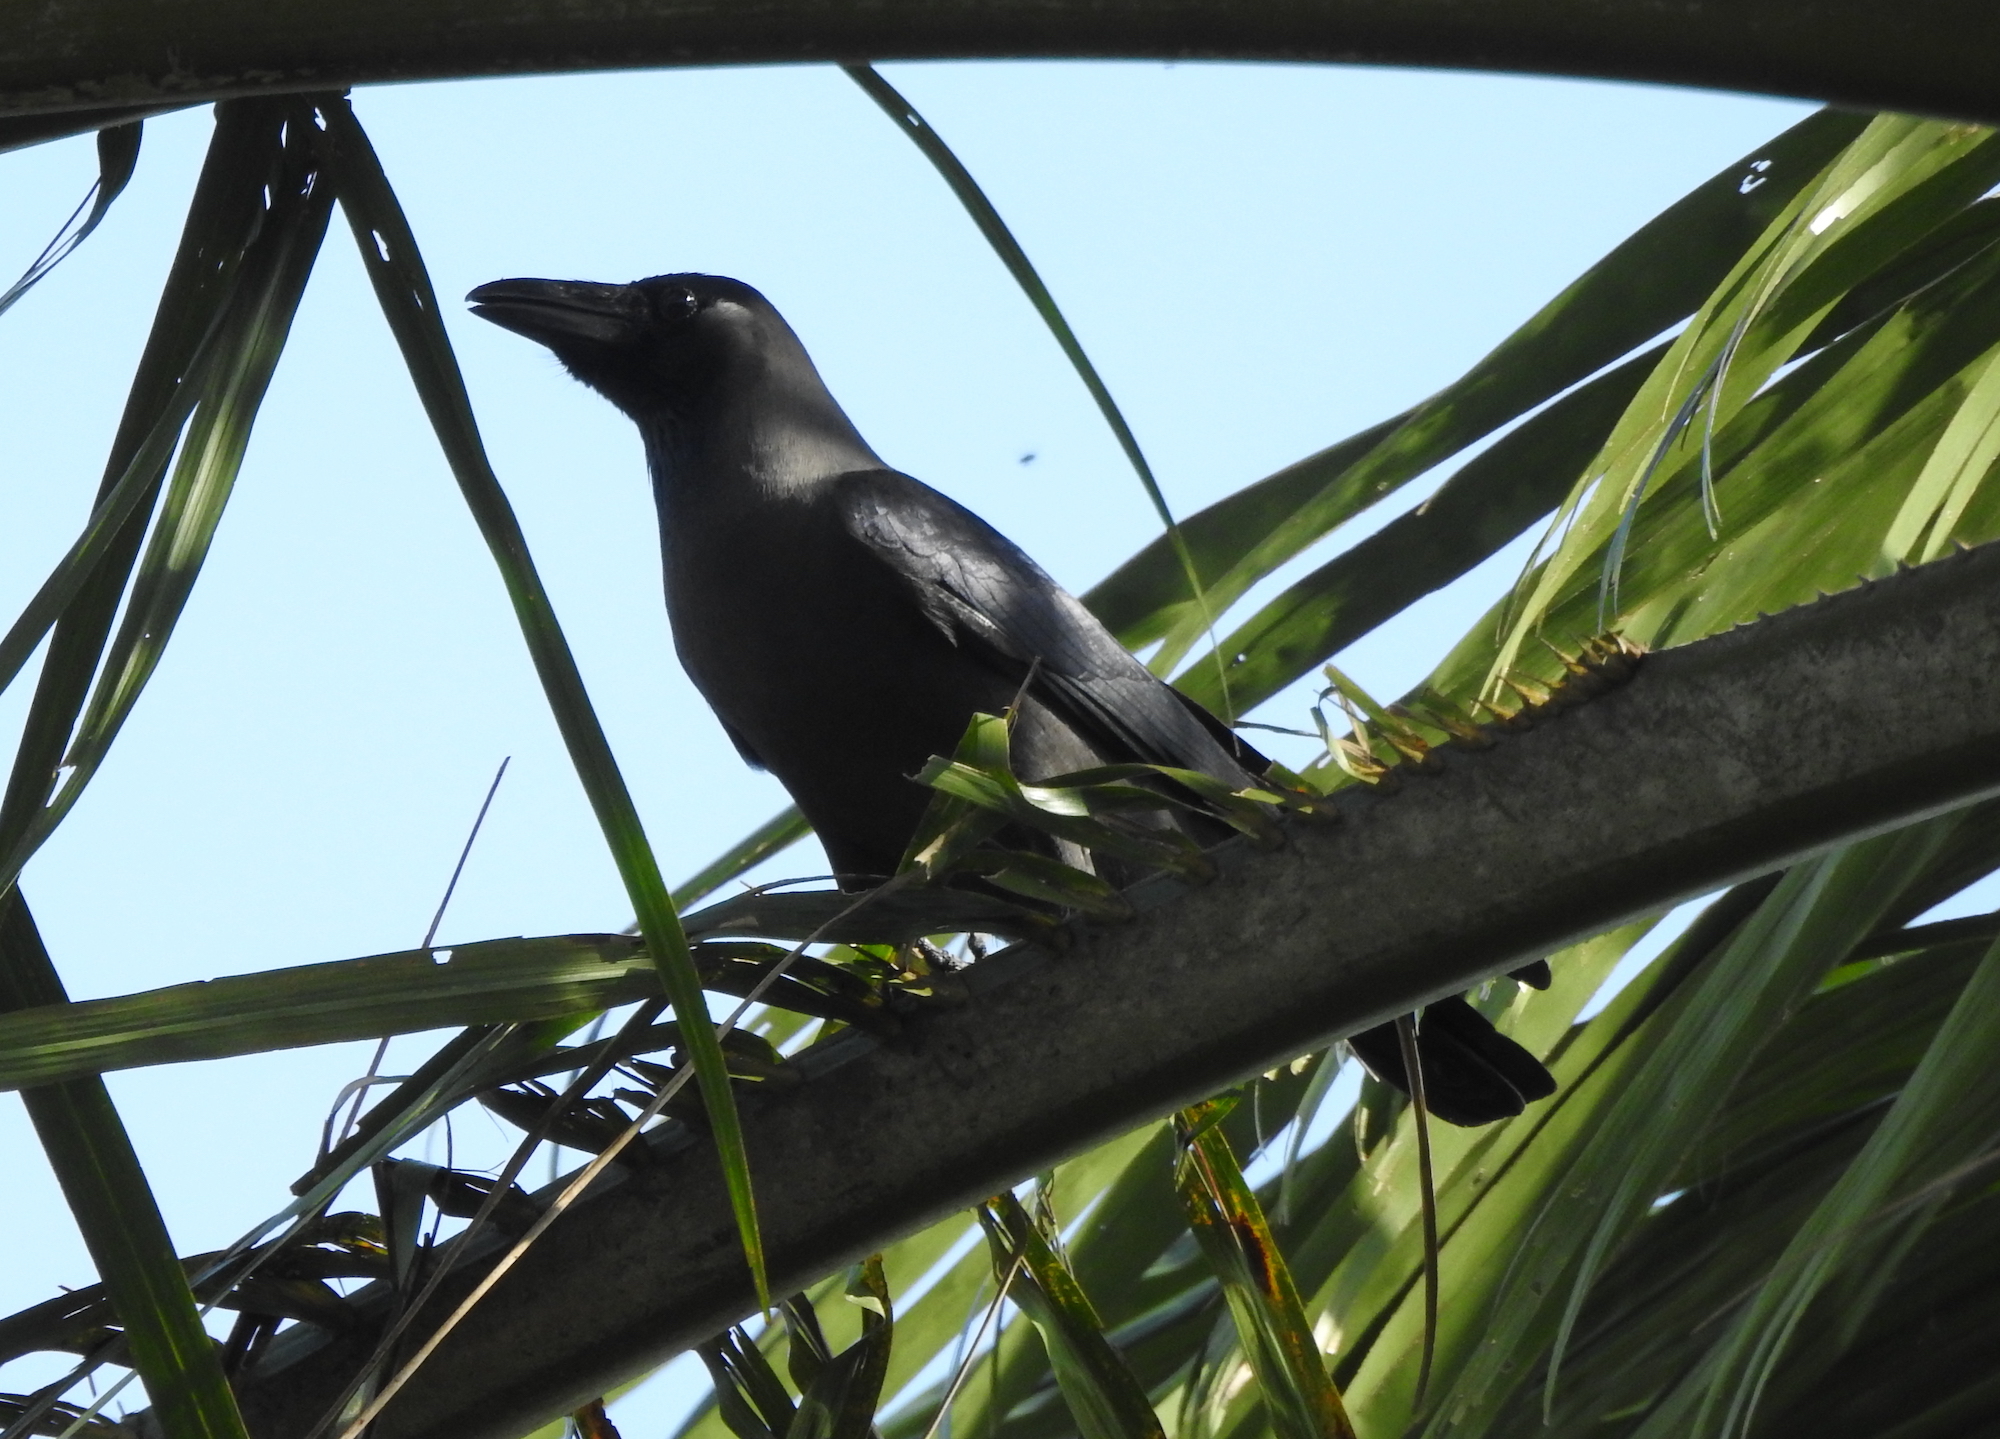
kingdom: Animalia
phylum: Chordata
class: Aves
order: Passeriformes
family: Corvidae
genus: Corvus
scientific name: Corvus splendens
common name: House crow
